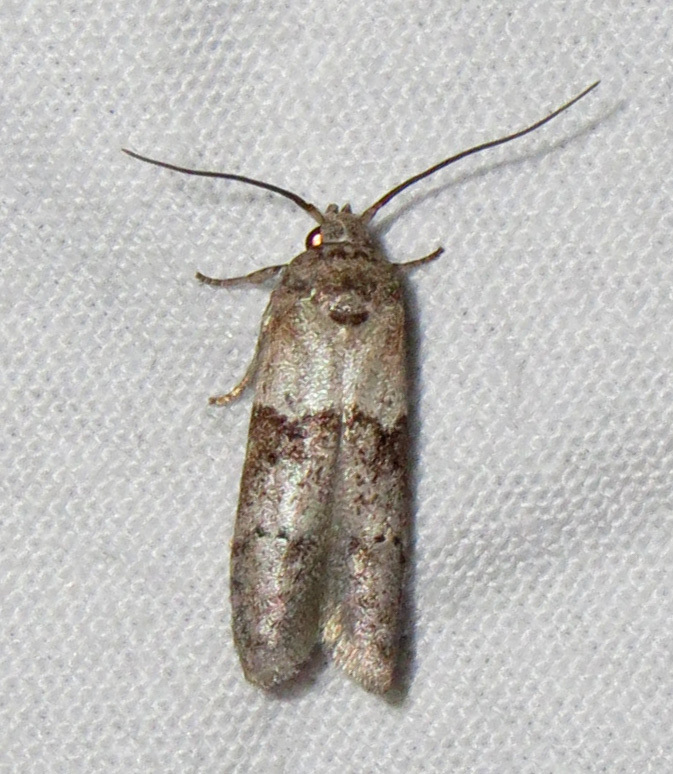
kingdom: Animalia
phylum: Arthropoda
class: Insecta
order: Lepidoptera
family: Blastobasidae
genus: Blastobasis
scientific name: Blastobasis glandulella
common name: Acorn moth
